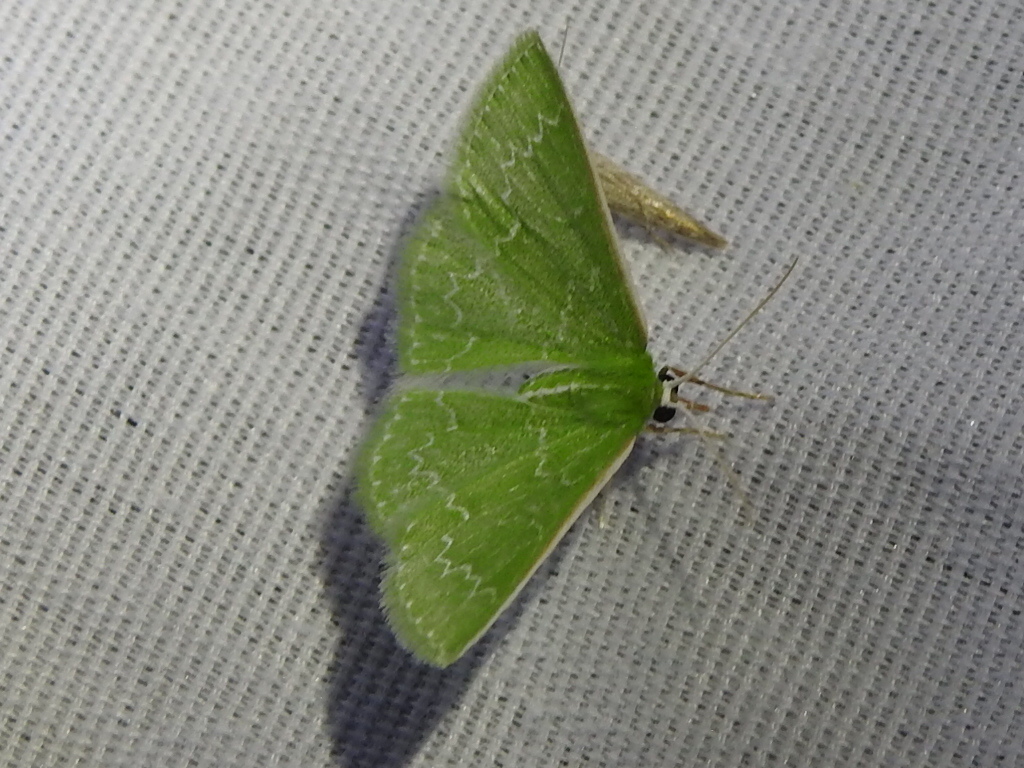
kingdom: Animalia
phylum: Arthropoda
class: Insecta
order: Lepidoptera
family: Geometridae
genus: Synchlora
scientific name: Synchlora frondaria
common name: Southern emerald
